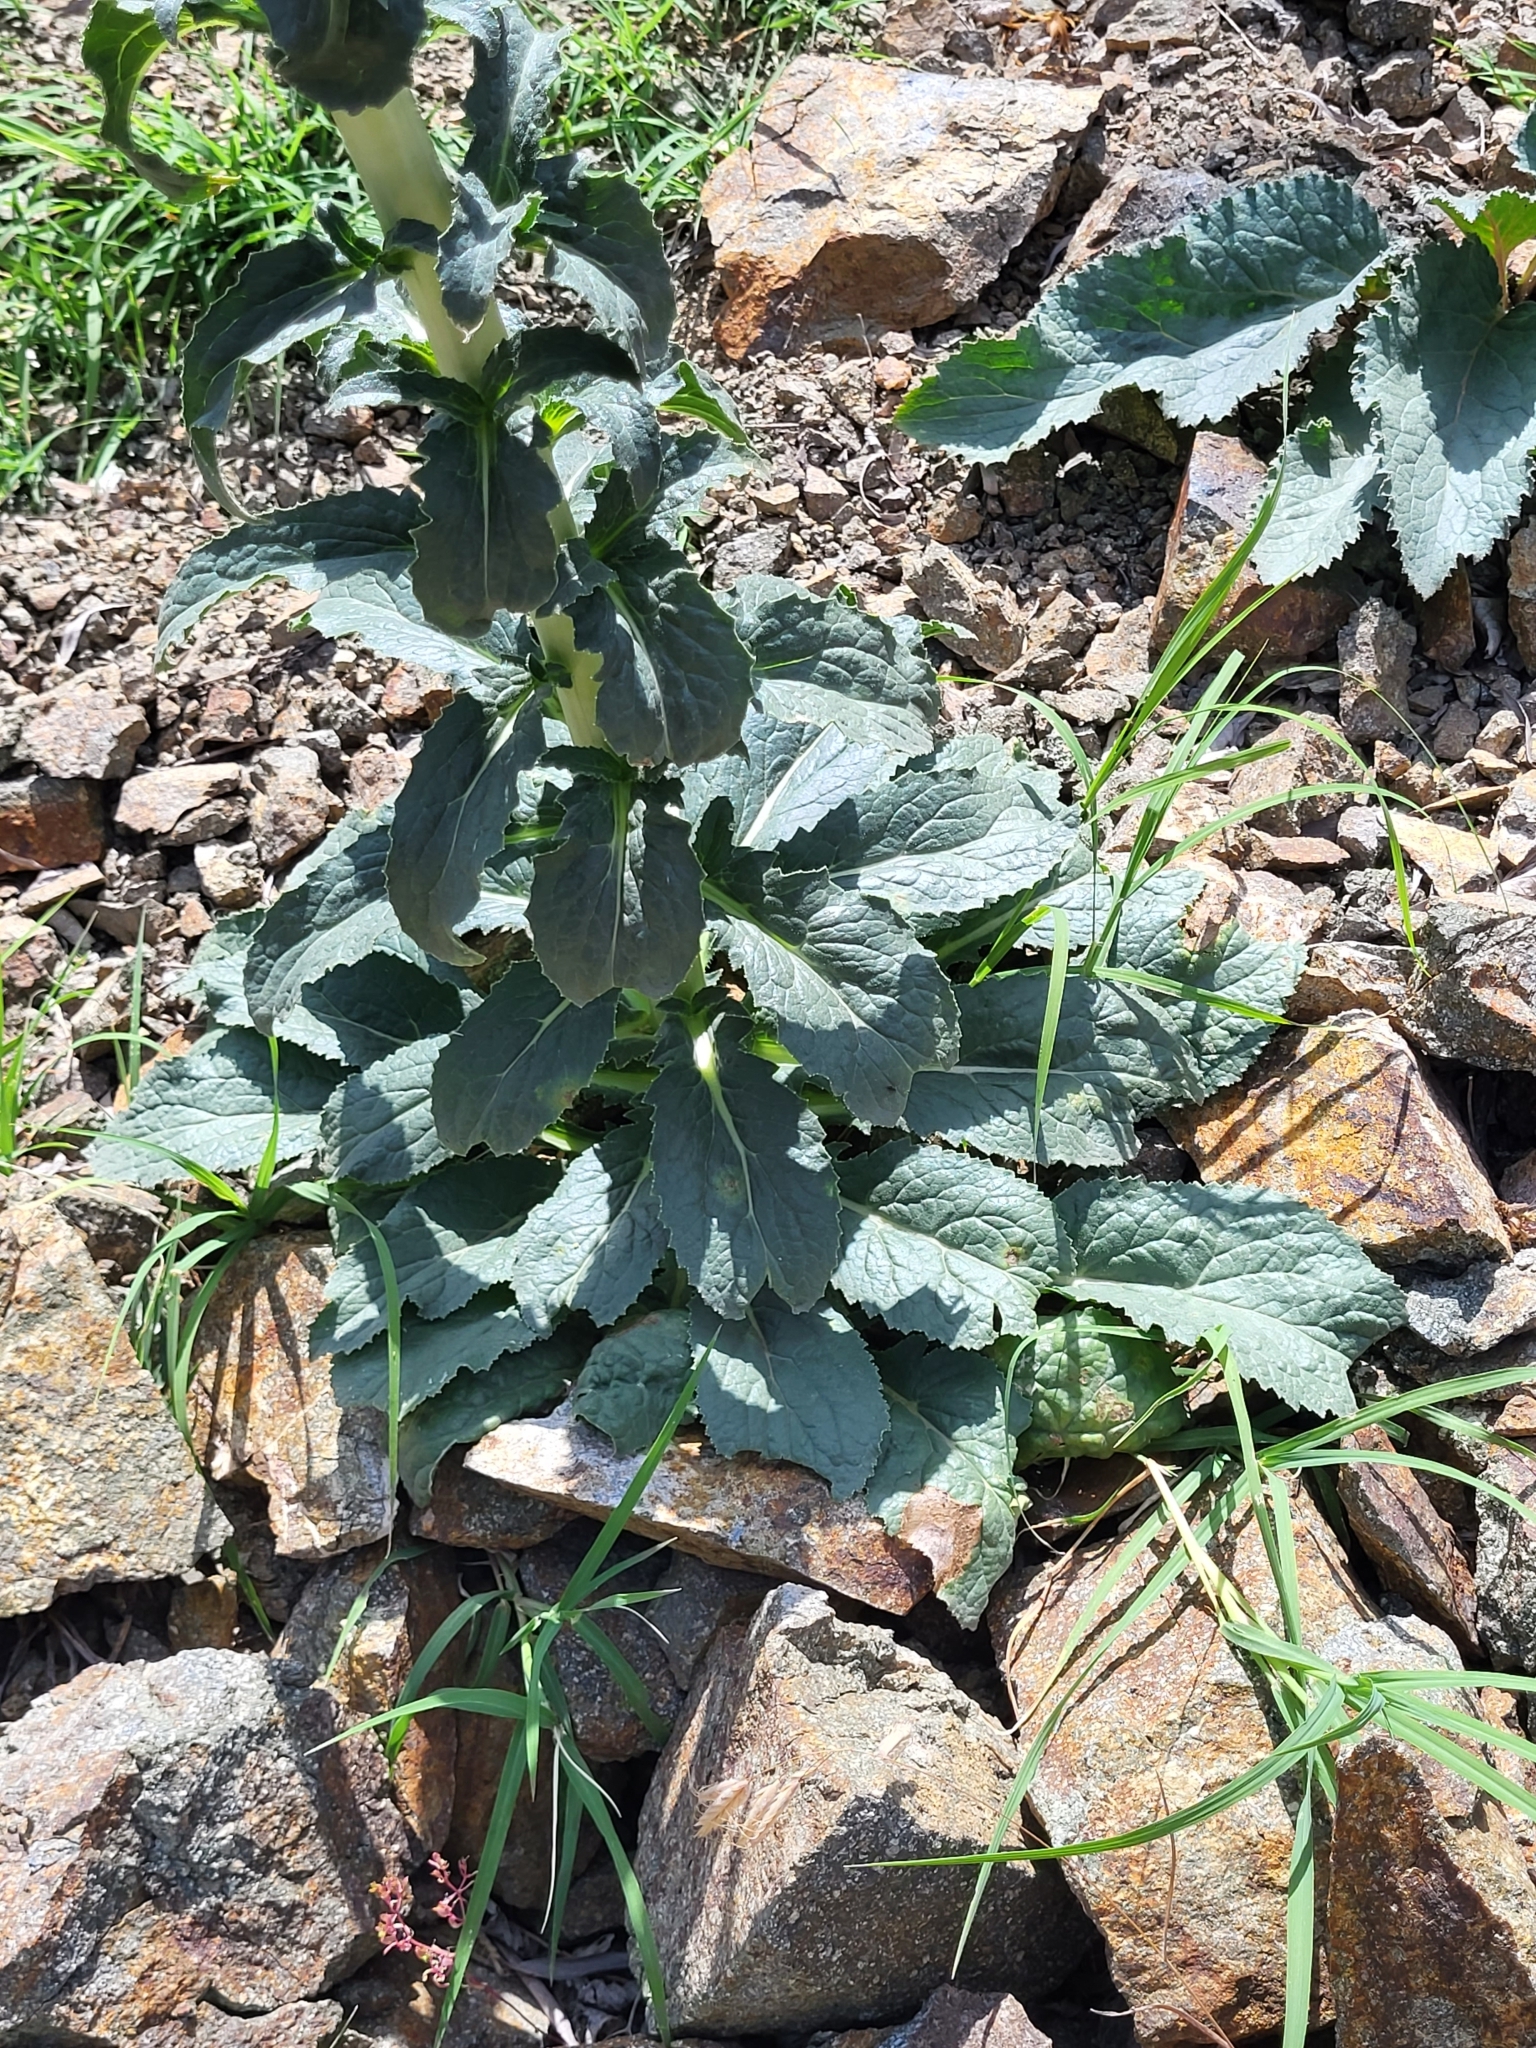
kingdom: Plantae
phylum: Tracheophyta
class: Magnoliopsida
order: Asterales
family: Campanulaceae
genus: Michauxia
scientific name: Michauxia laevigata
